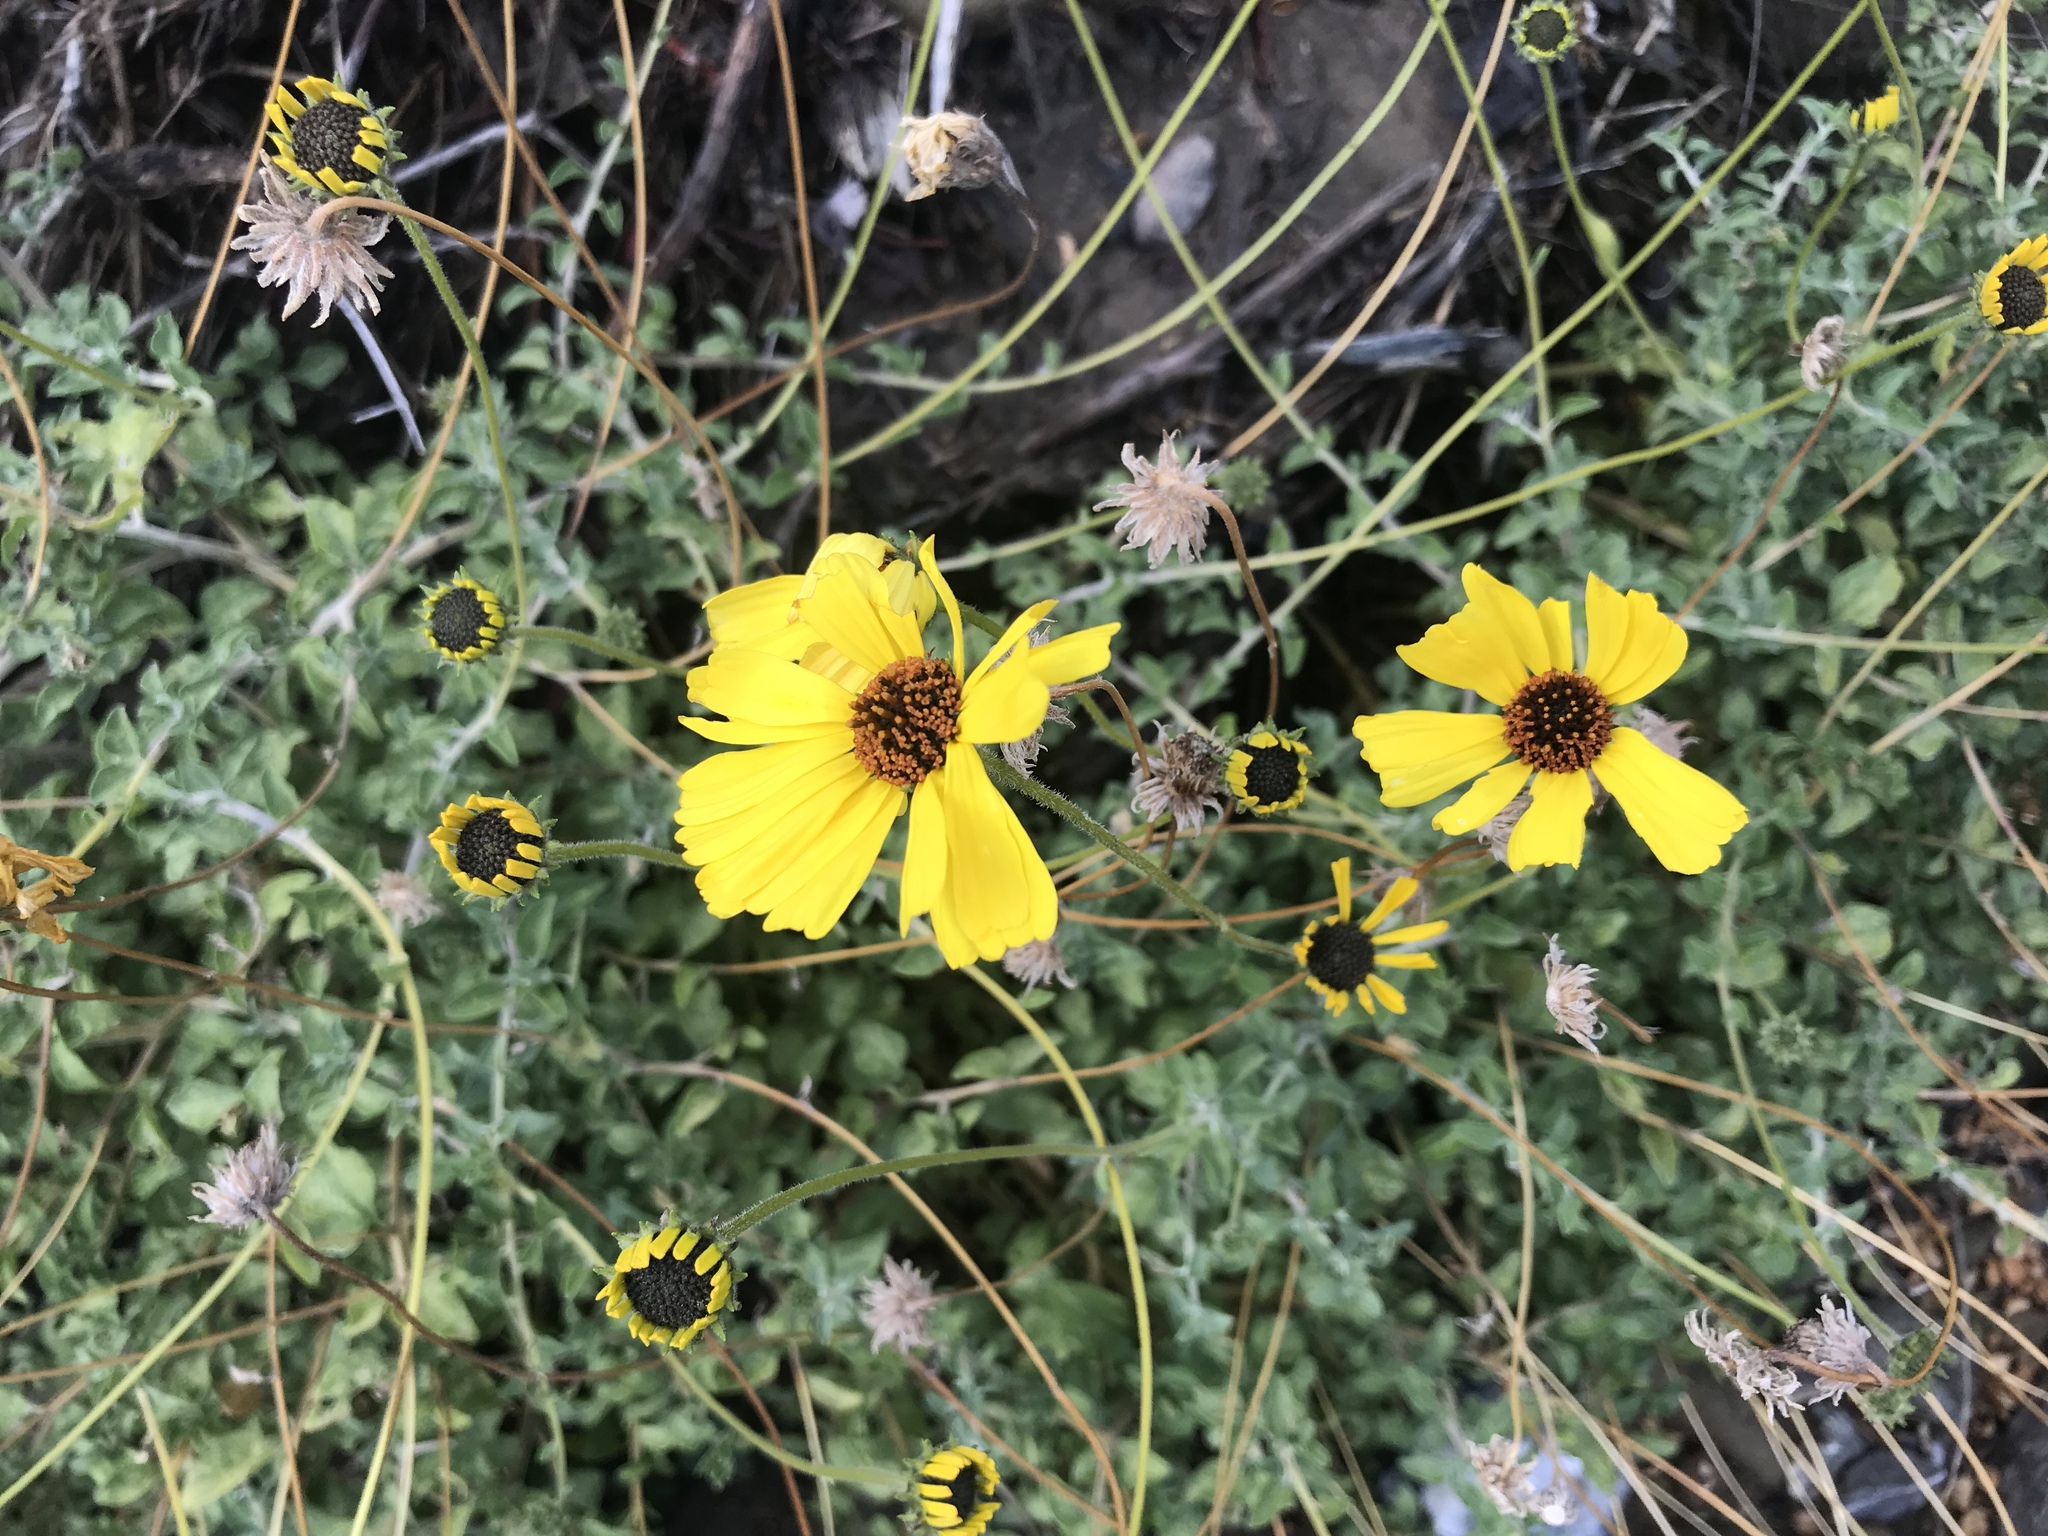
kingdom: Plantae
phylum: Tracheophyta
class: Magnoliopsida
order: Asterales
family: Asteraceae
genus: Encelia
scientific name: Encelia asperifolia
